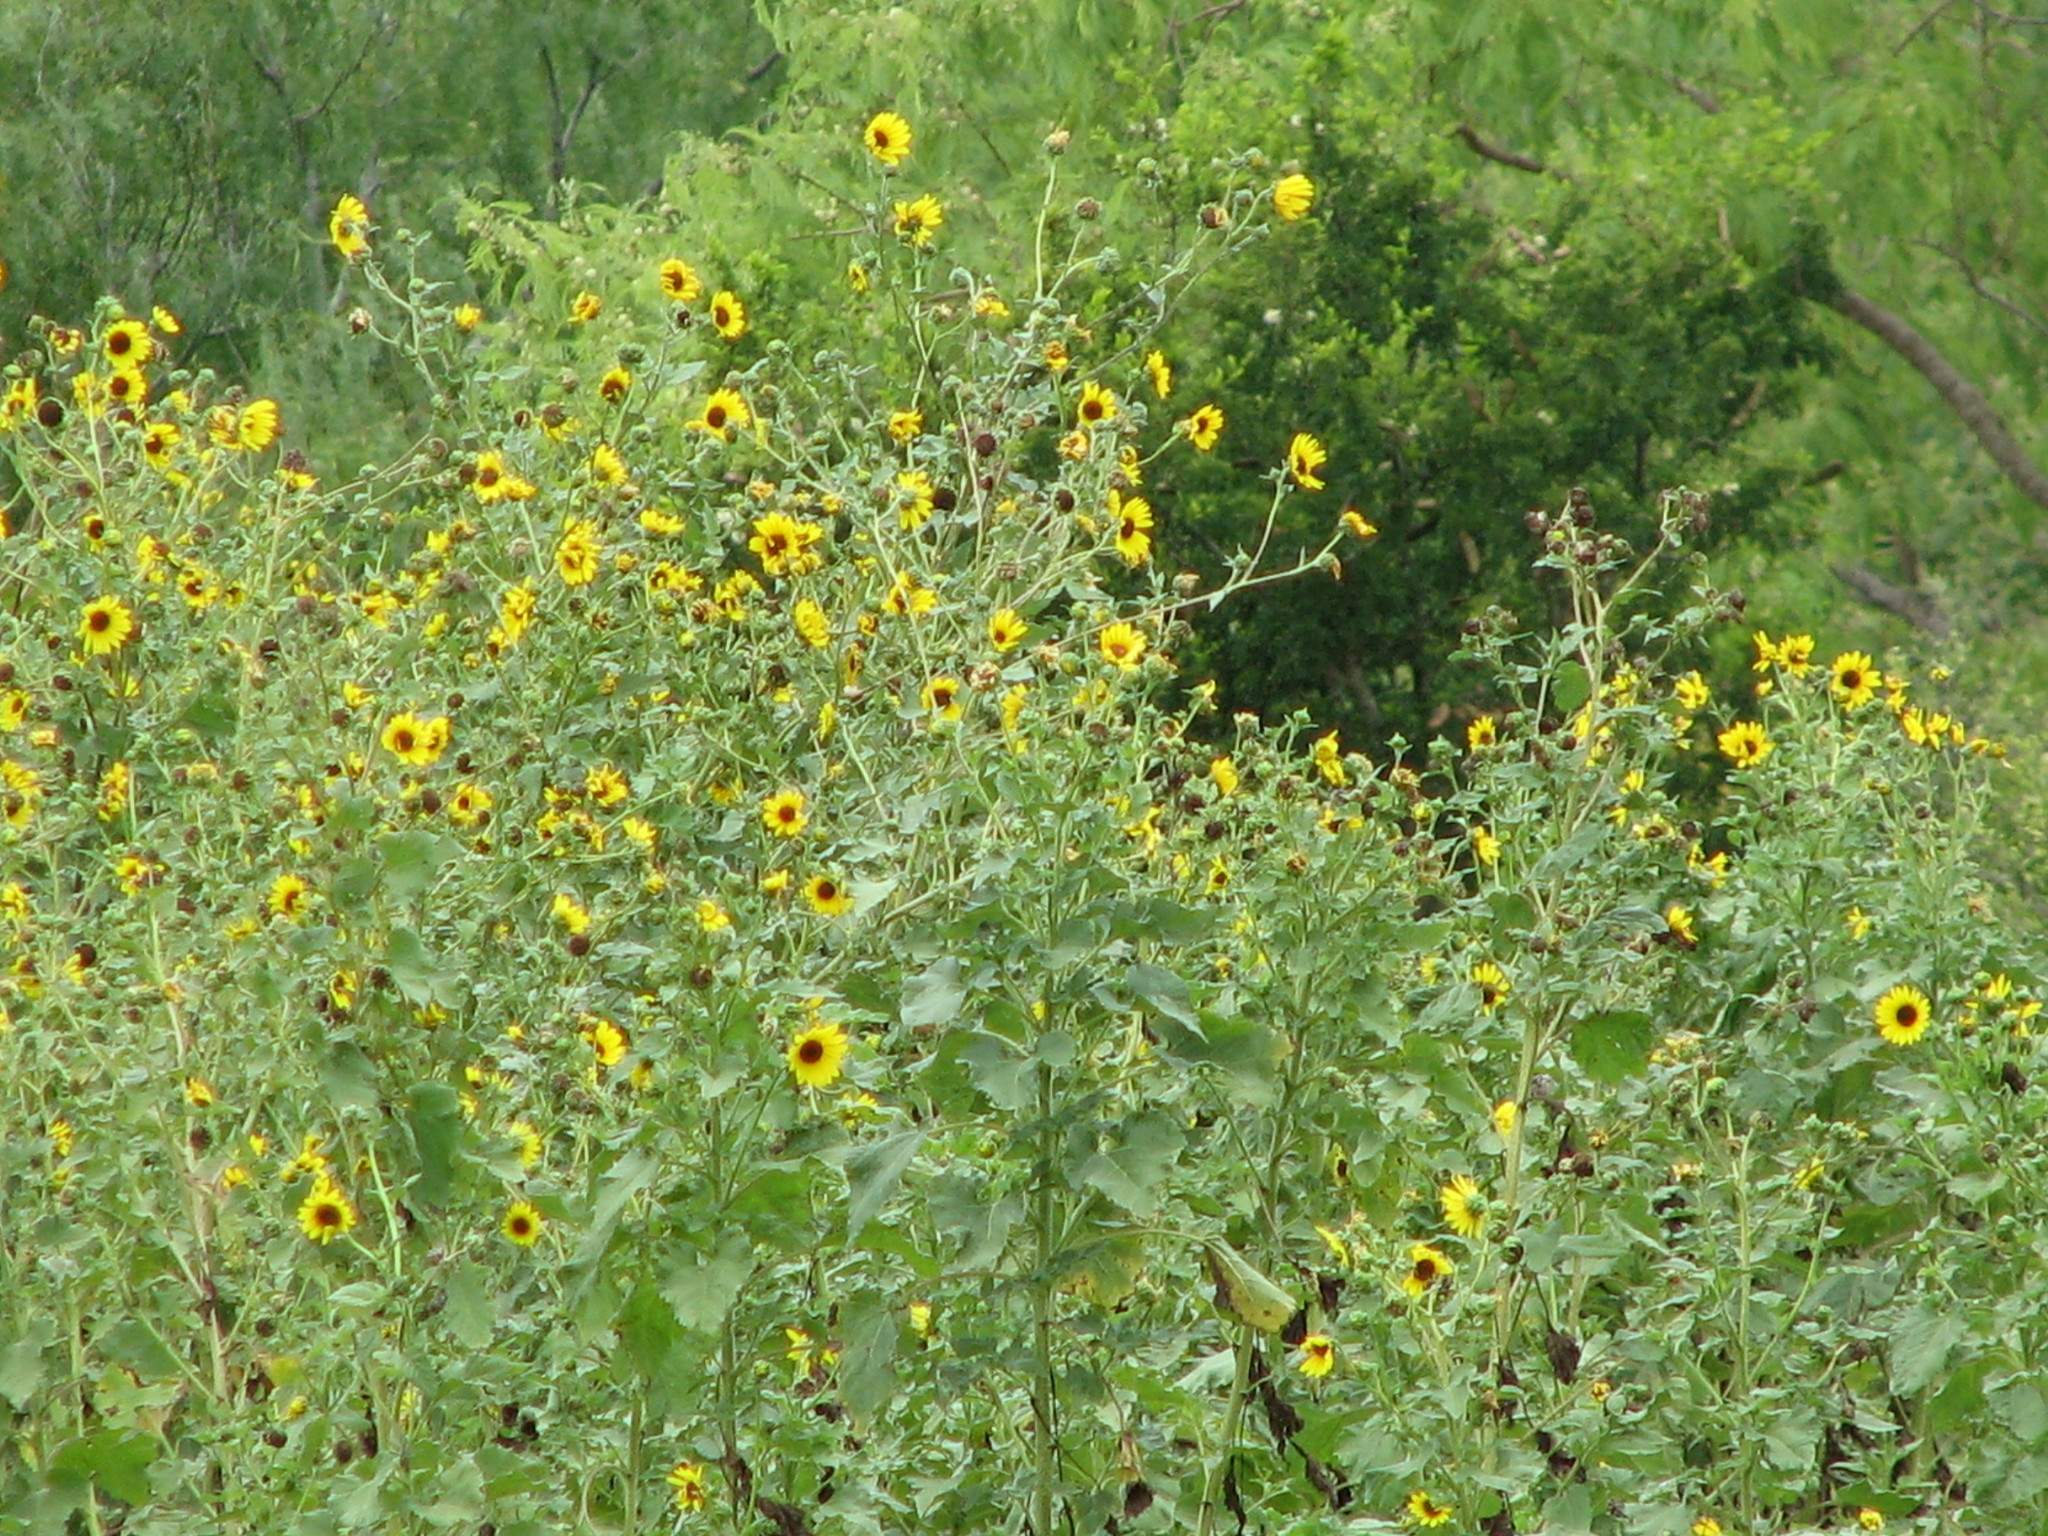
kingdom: Plantae
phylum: Tracheophyta
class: Magnoliopsida
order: Asterales
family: Asteraceae
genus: Helianthus
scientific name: Helianthus annuus
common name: Sunflower
